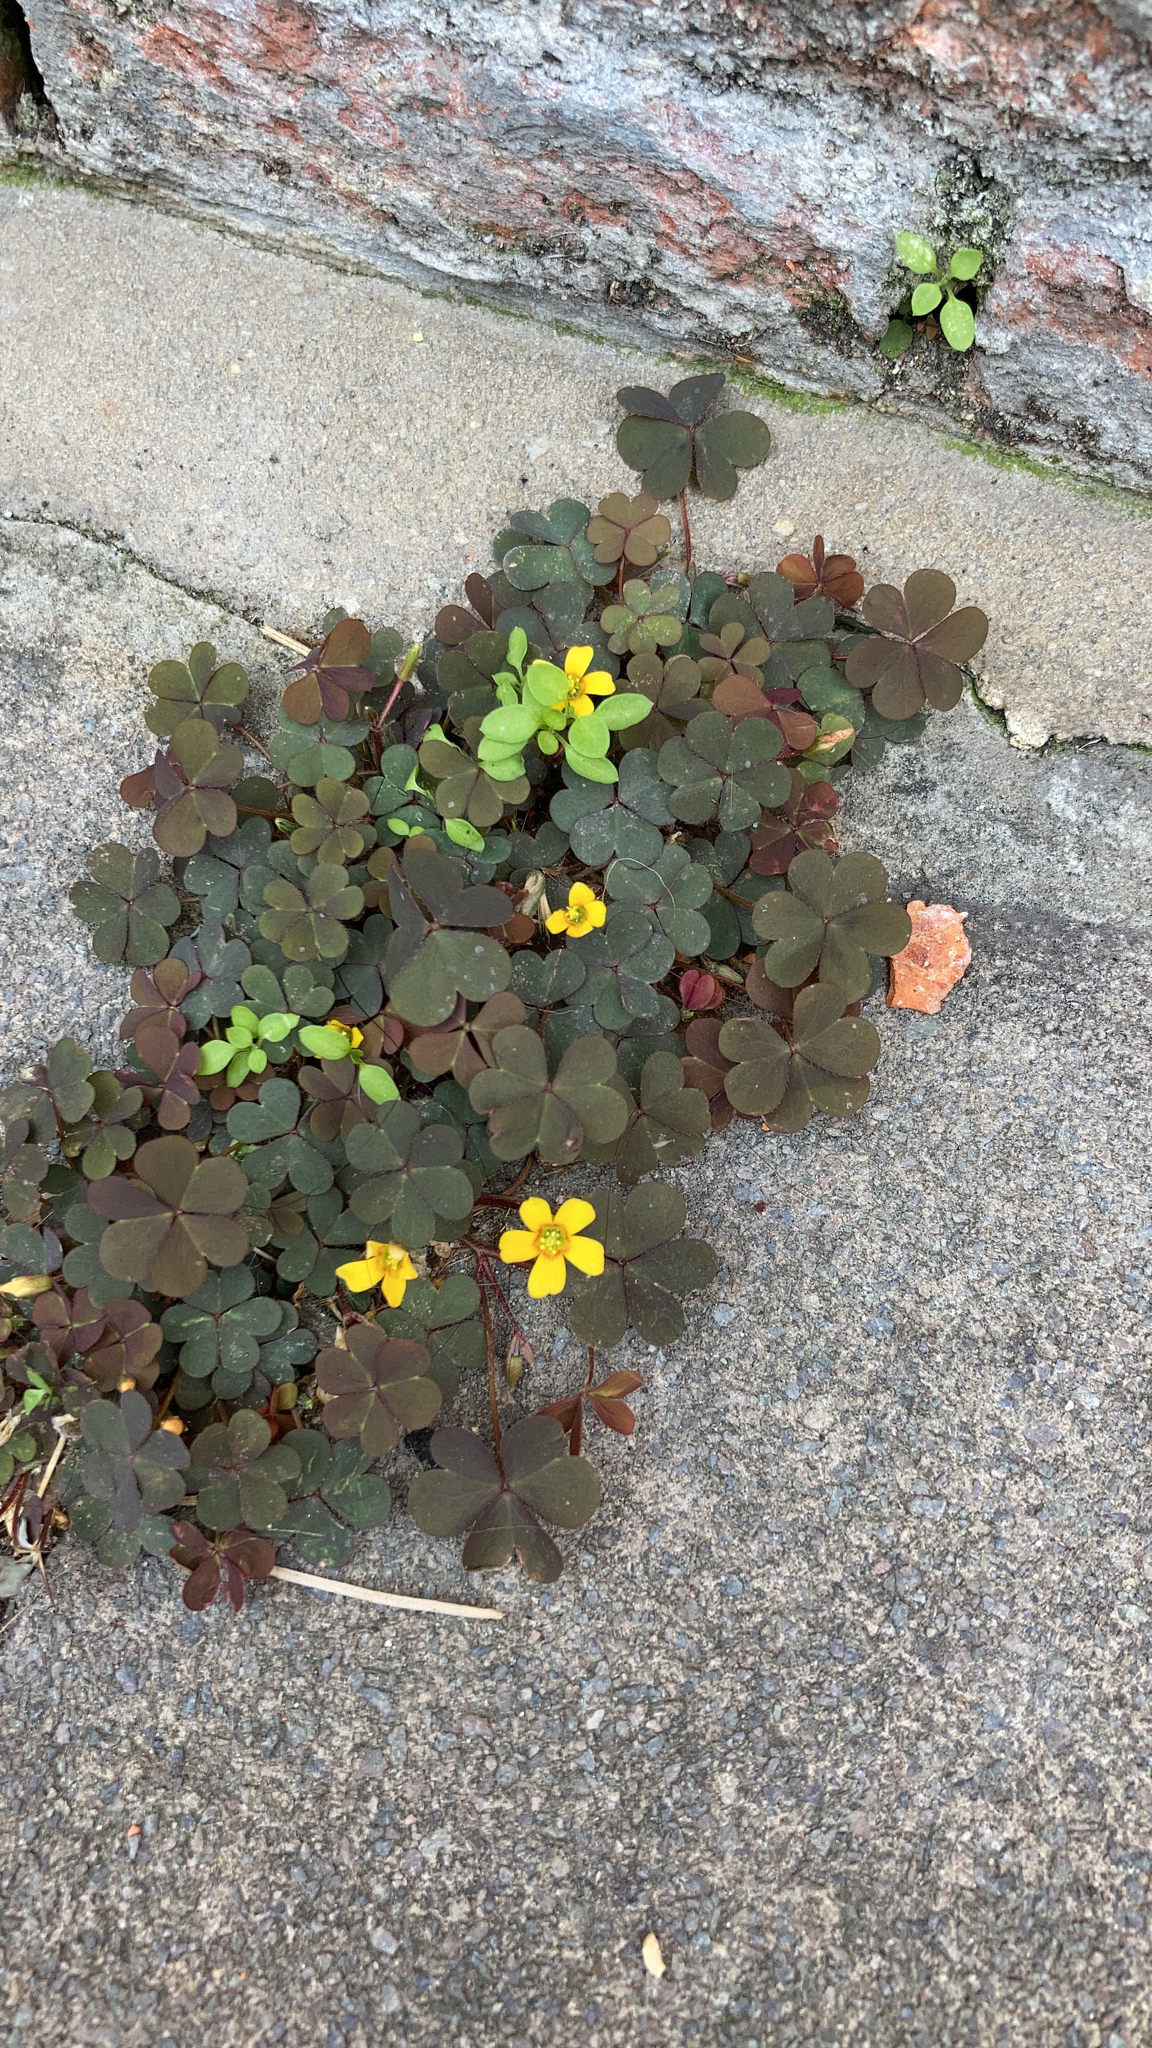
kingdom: Plantae
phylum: Tracheophyta
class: Magnoliopsida
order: Oxalidales
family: Oxalidaceae
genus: Oxalis
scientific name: Oxalis corniculata
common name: Procumbent yellow-sorrel
